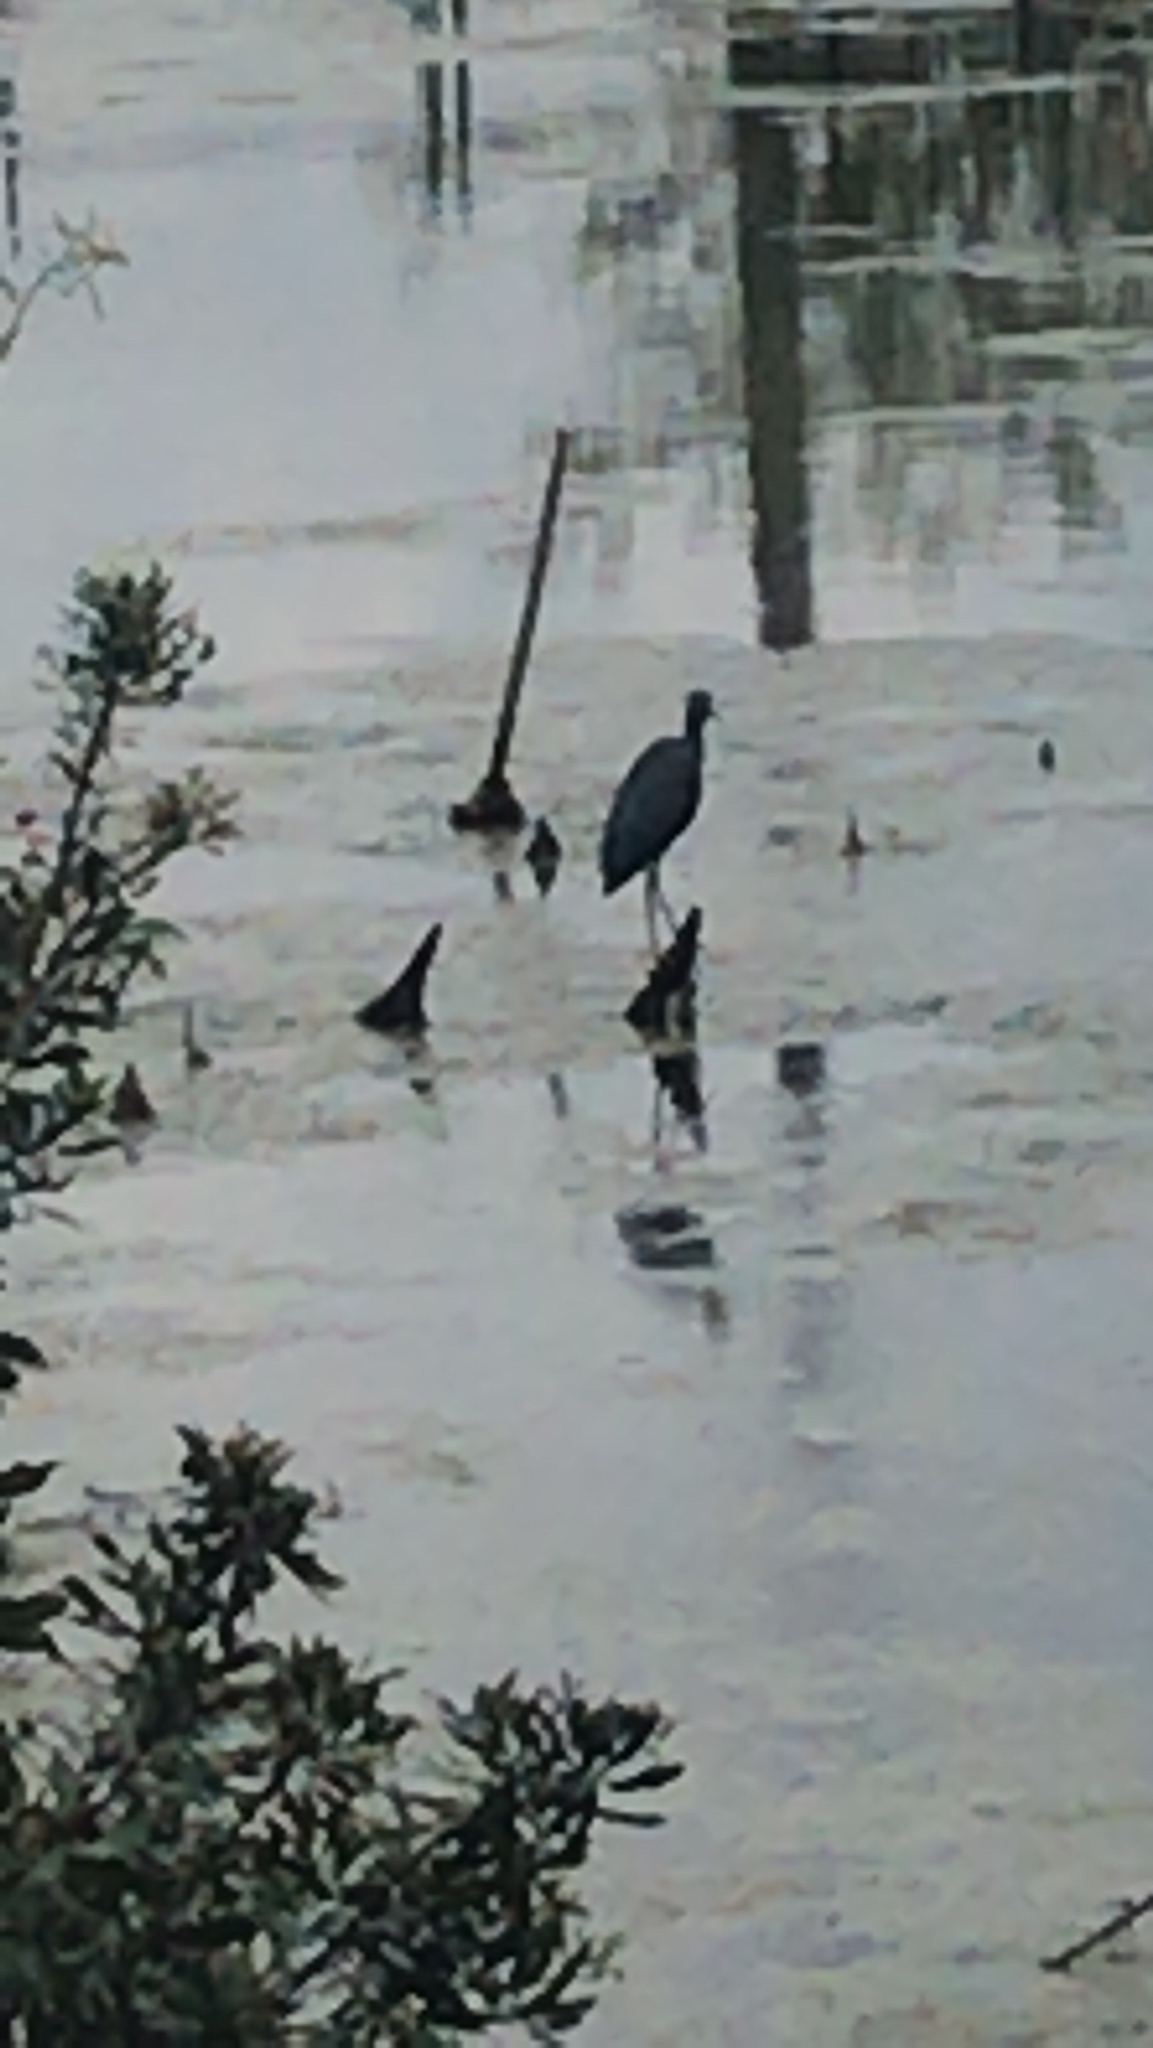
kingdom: Animalia
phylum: Chordata
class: Aves
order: Pelecaniformes
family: Ardeidae
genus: Egretta
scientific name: Egretta caerulea
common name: Little blue heron
